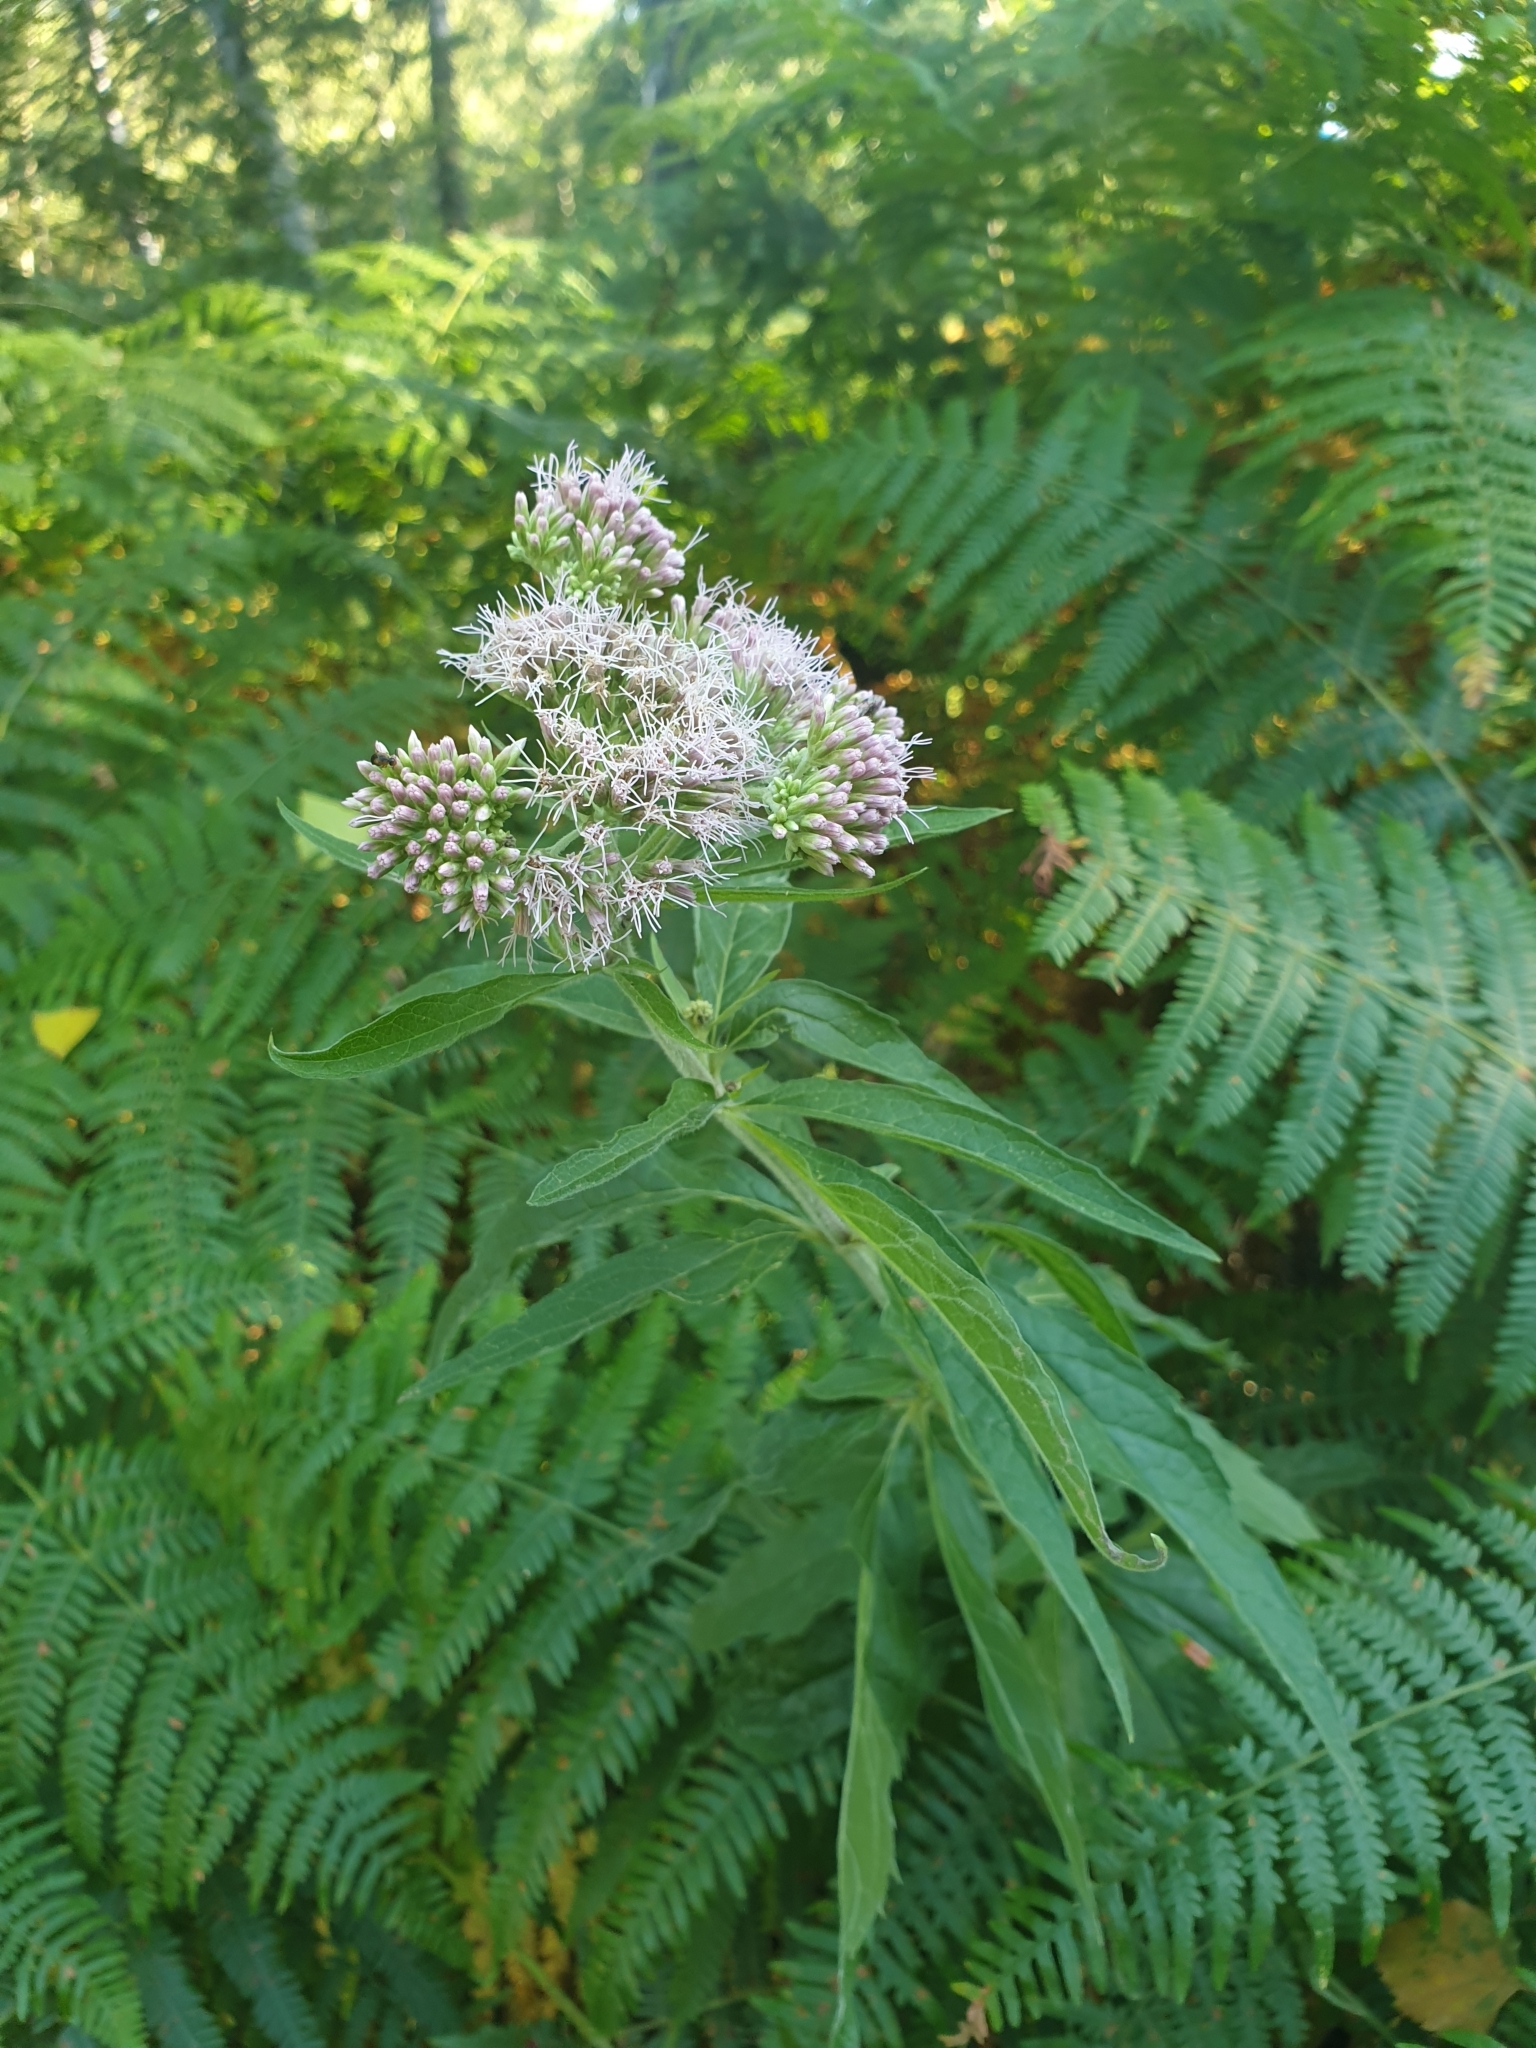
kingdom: Plantae
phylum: Tracheophyta
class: Magnoliopsida
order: Asterales
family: Asteraceae
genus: Eupatorium
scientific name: Eupatorium cannabinum
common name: Hemp-agrimony
